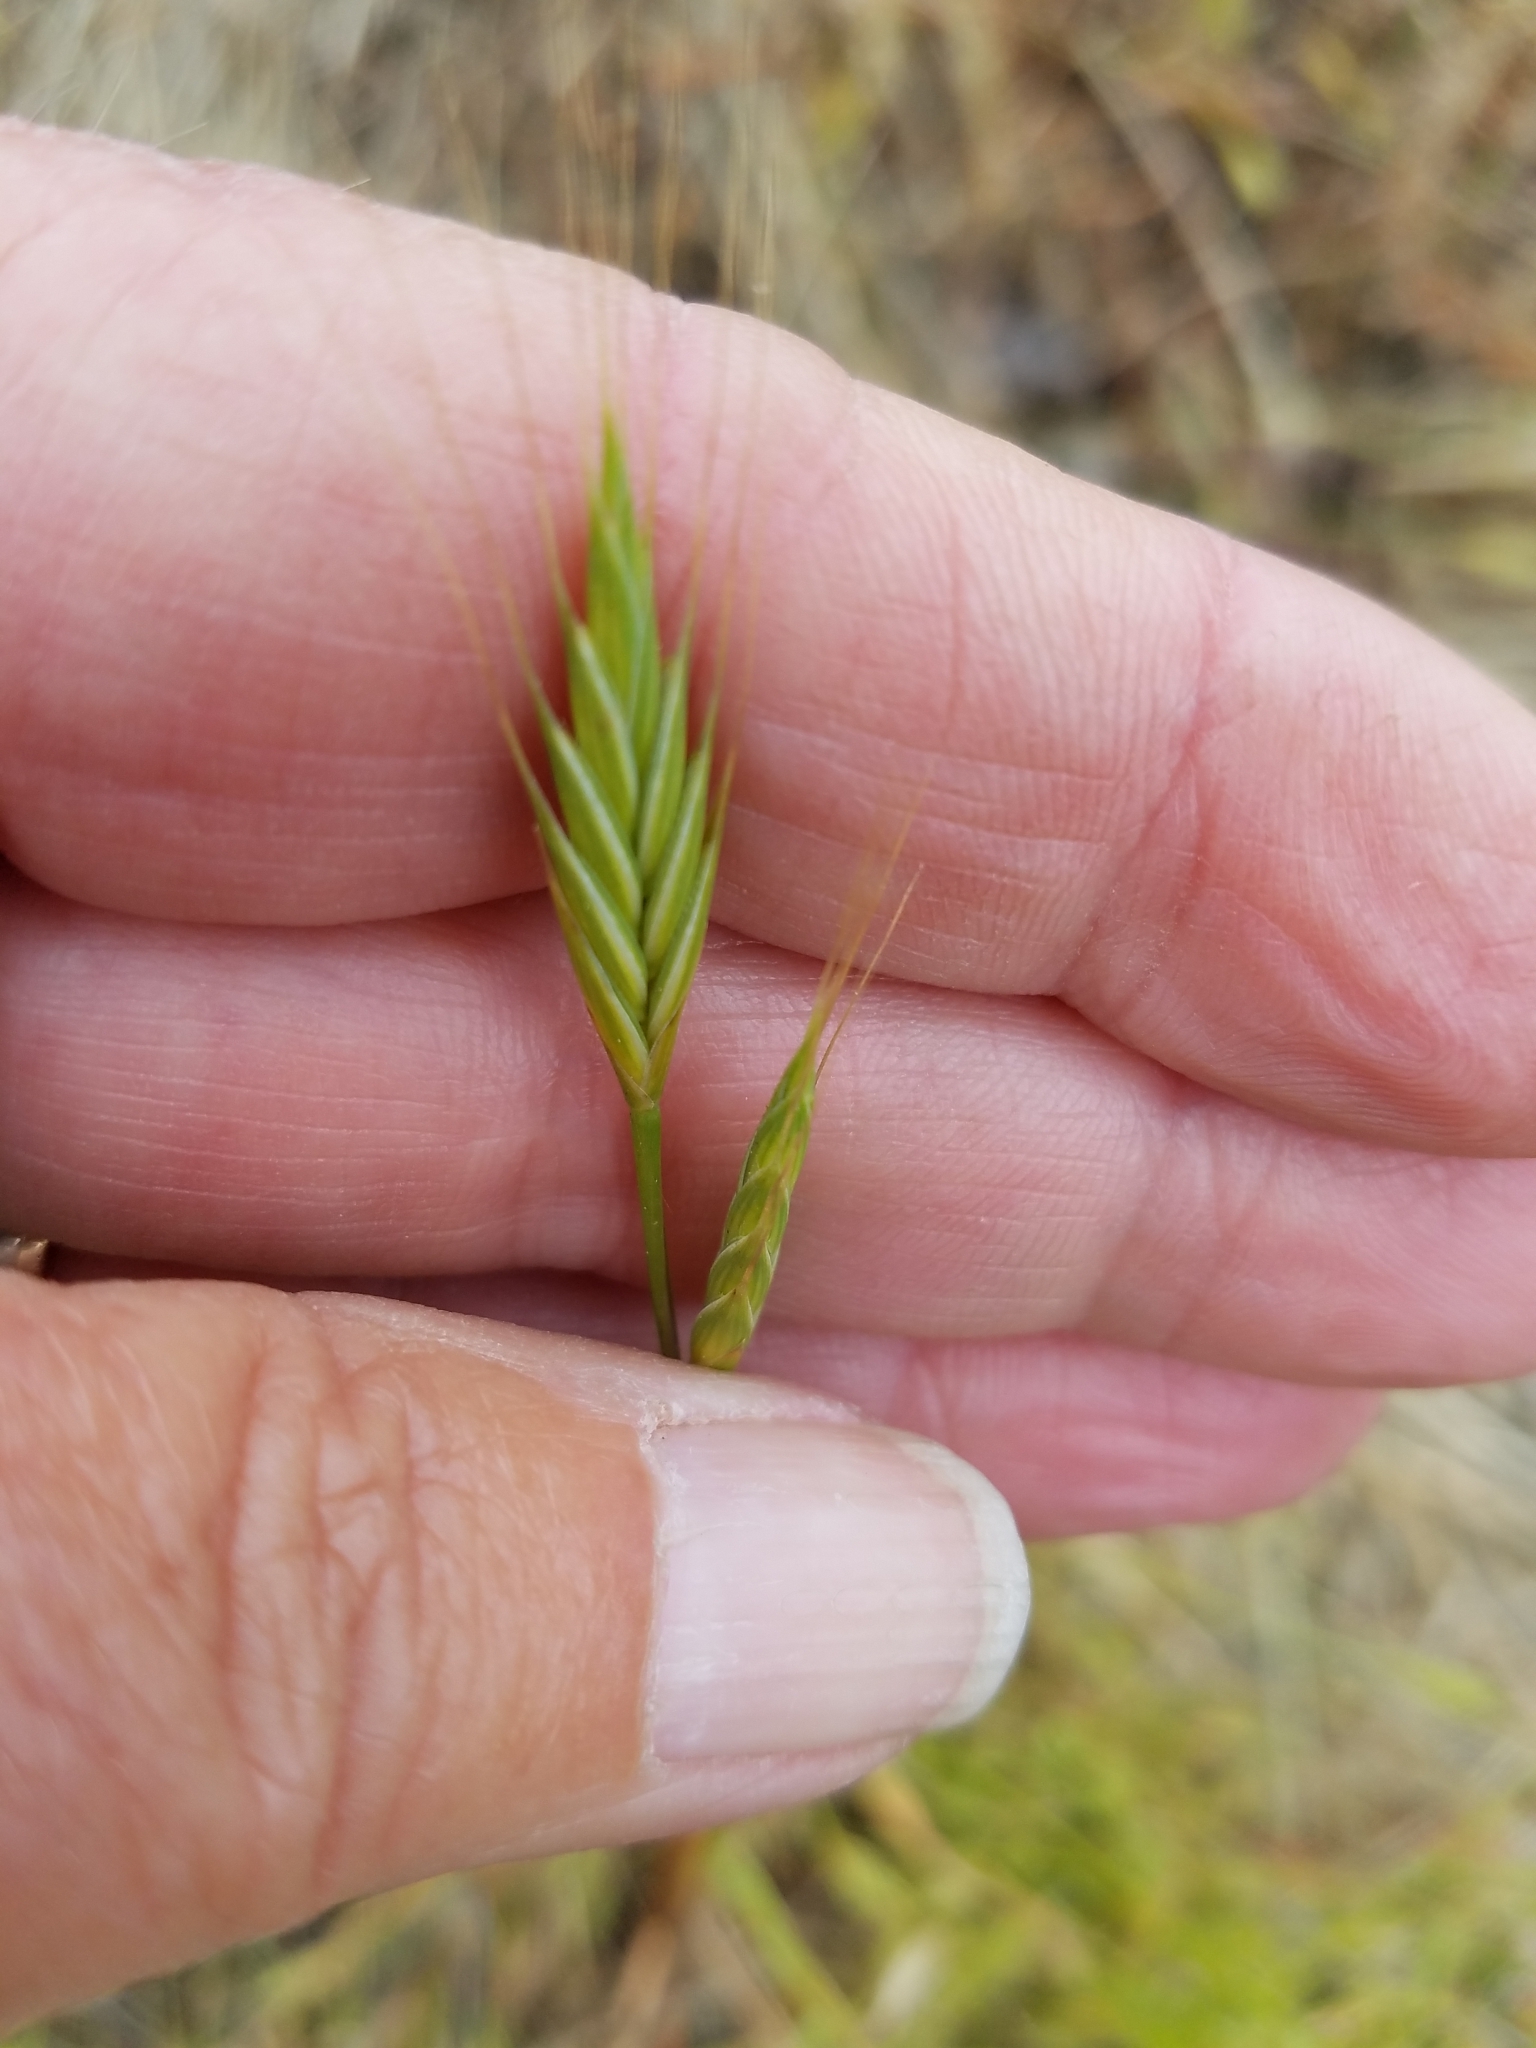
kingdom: Plantae
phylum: Tracheophyta
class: Liliopsida
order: Poales
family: Poaceae
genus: Brachypodium
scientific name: Brachypodium distachyon
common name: Stiff brome
